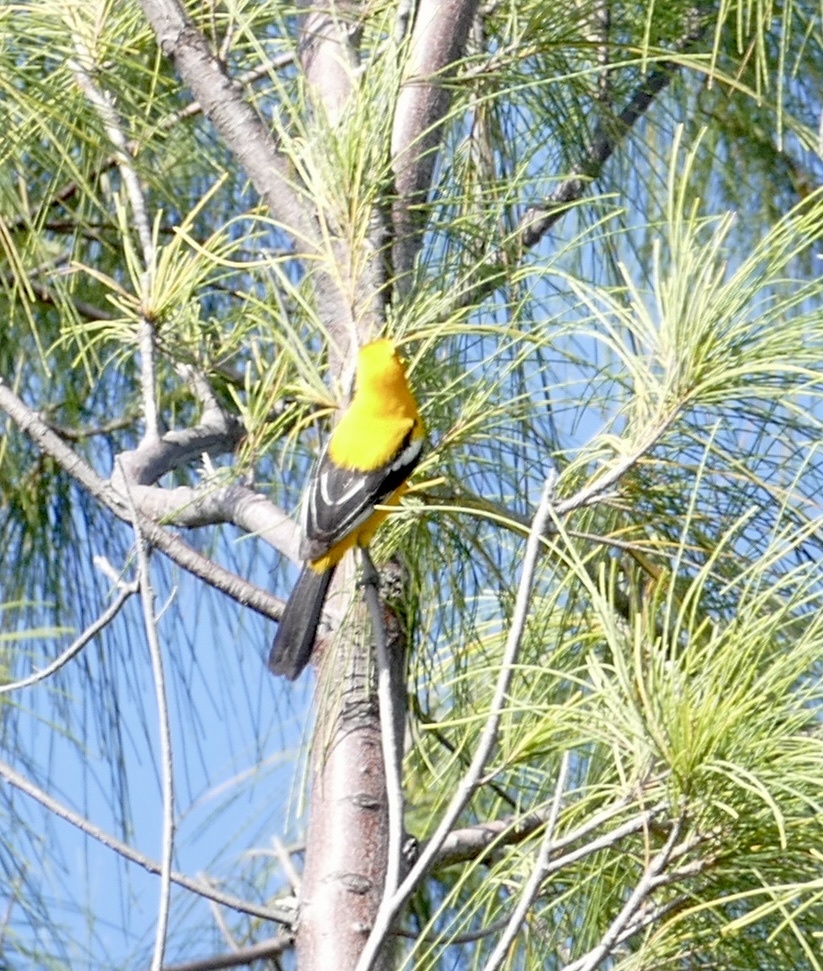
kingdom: Animalia
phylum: Chordata
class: Aves
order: Passeriformes
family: Icteridae
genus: Icterus
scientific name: Icterus auratus
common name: Orange oriole
